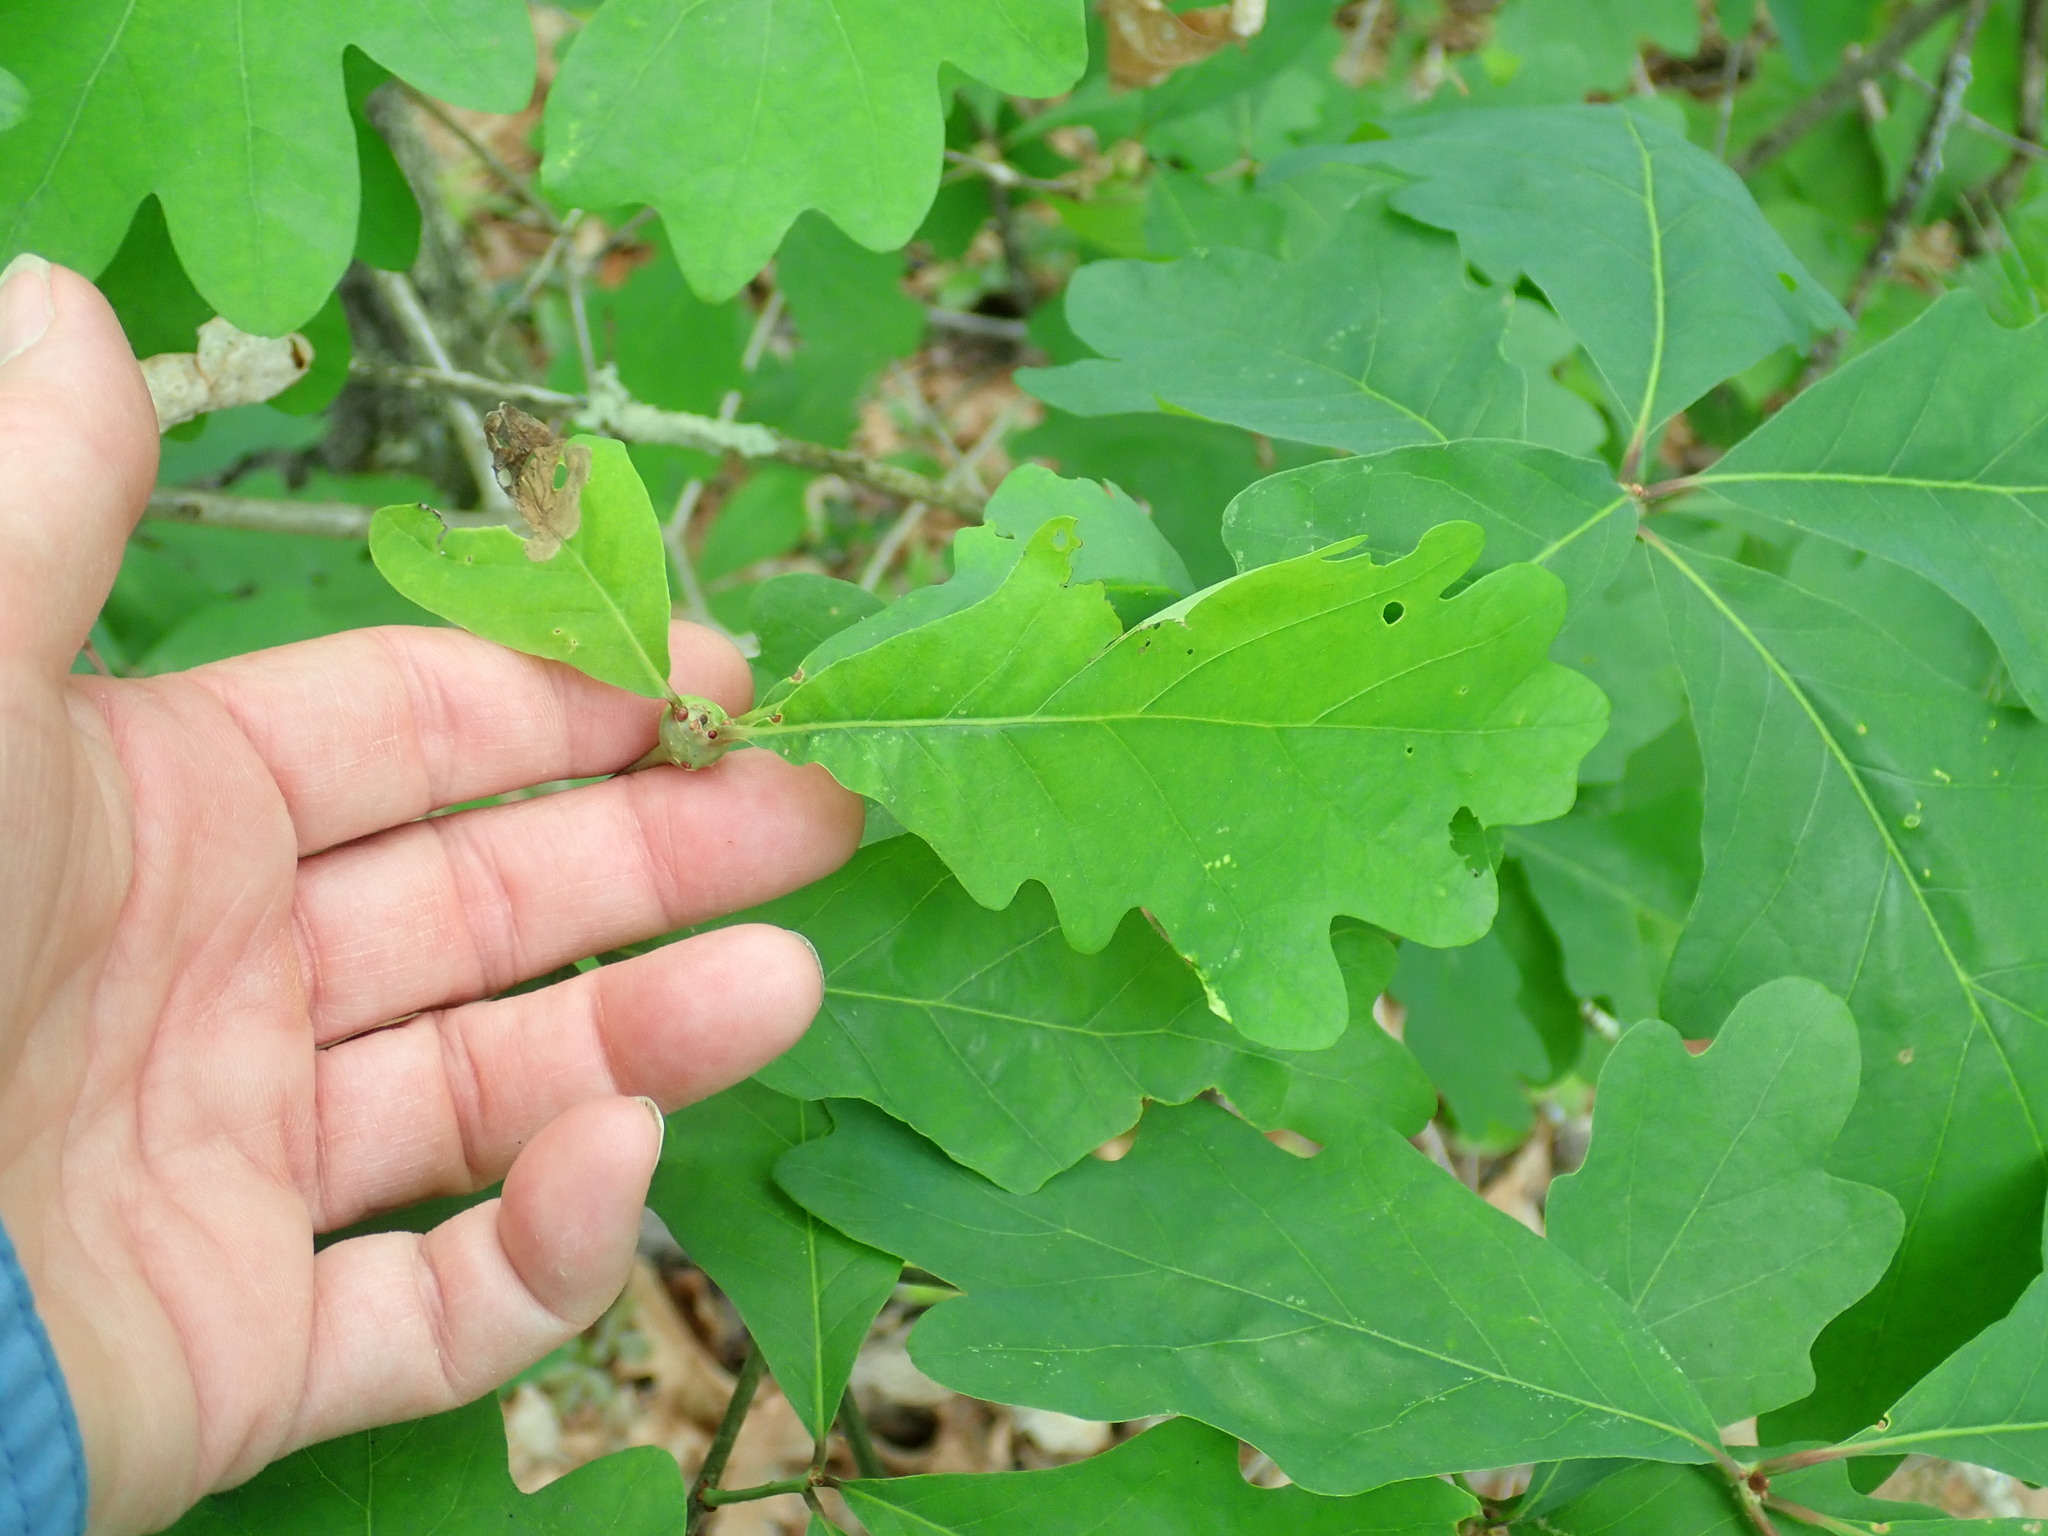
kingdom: Animalia
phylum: Arthropoda
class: Insecta
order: Hymenoptera
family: Cynipidae
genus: Callirhytis
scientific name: Callirhytis clavula
